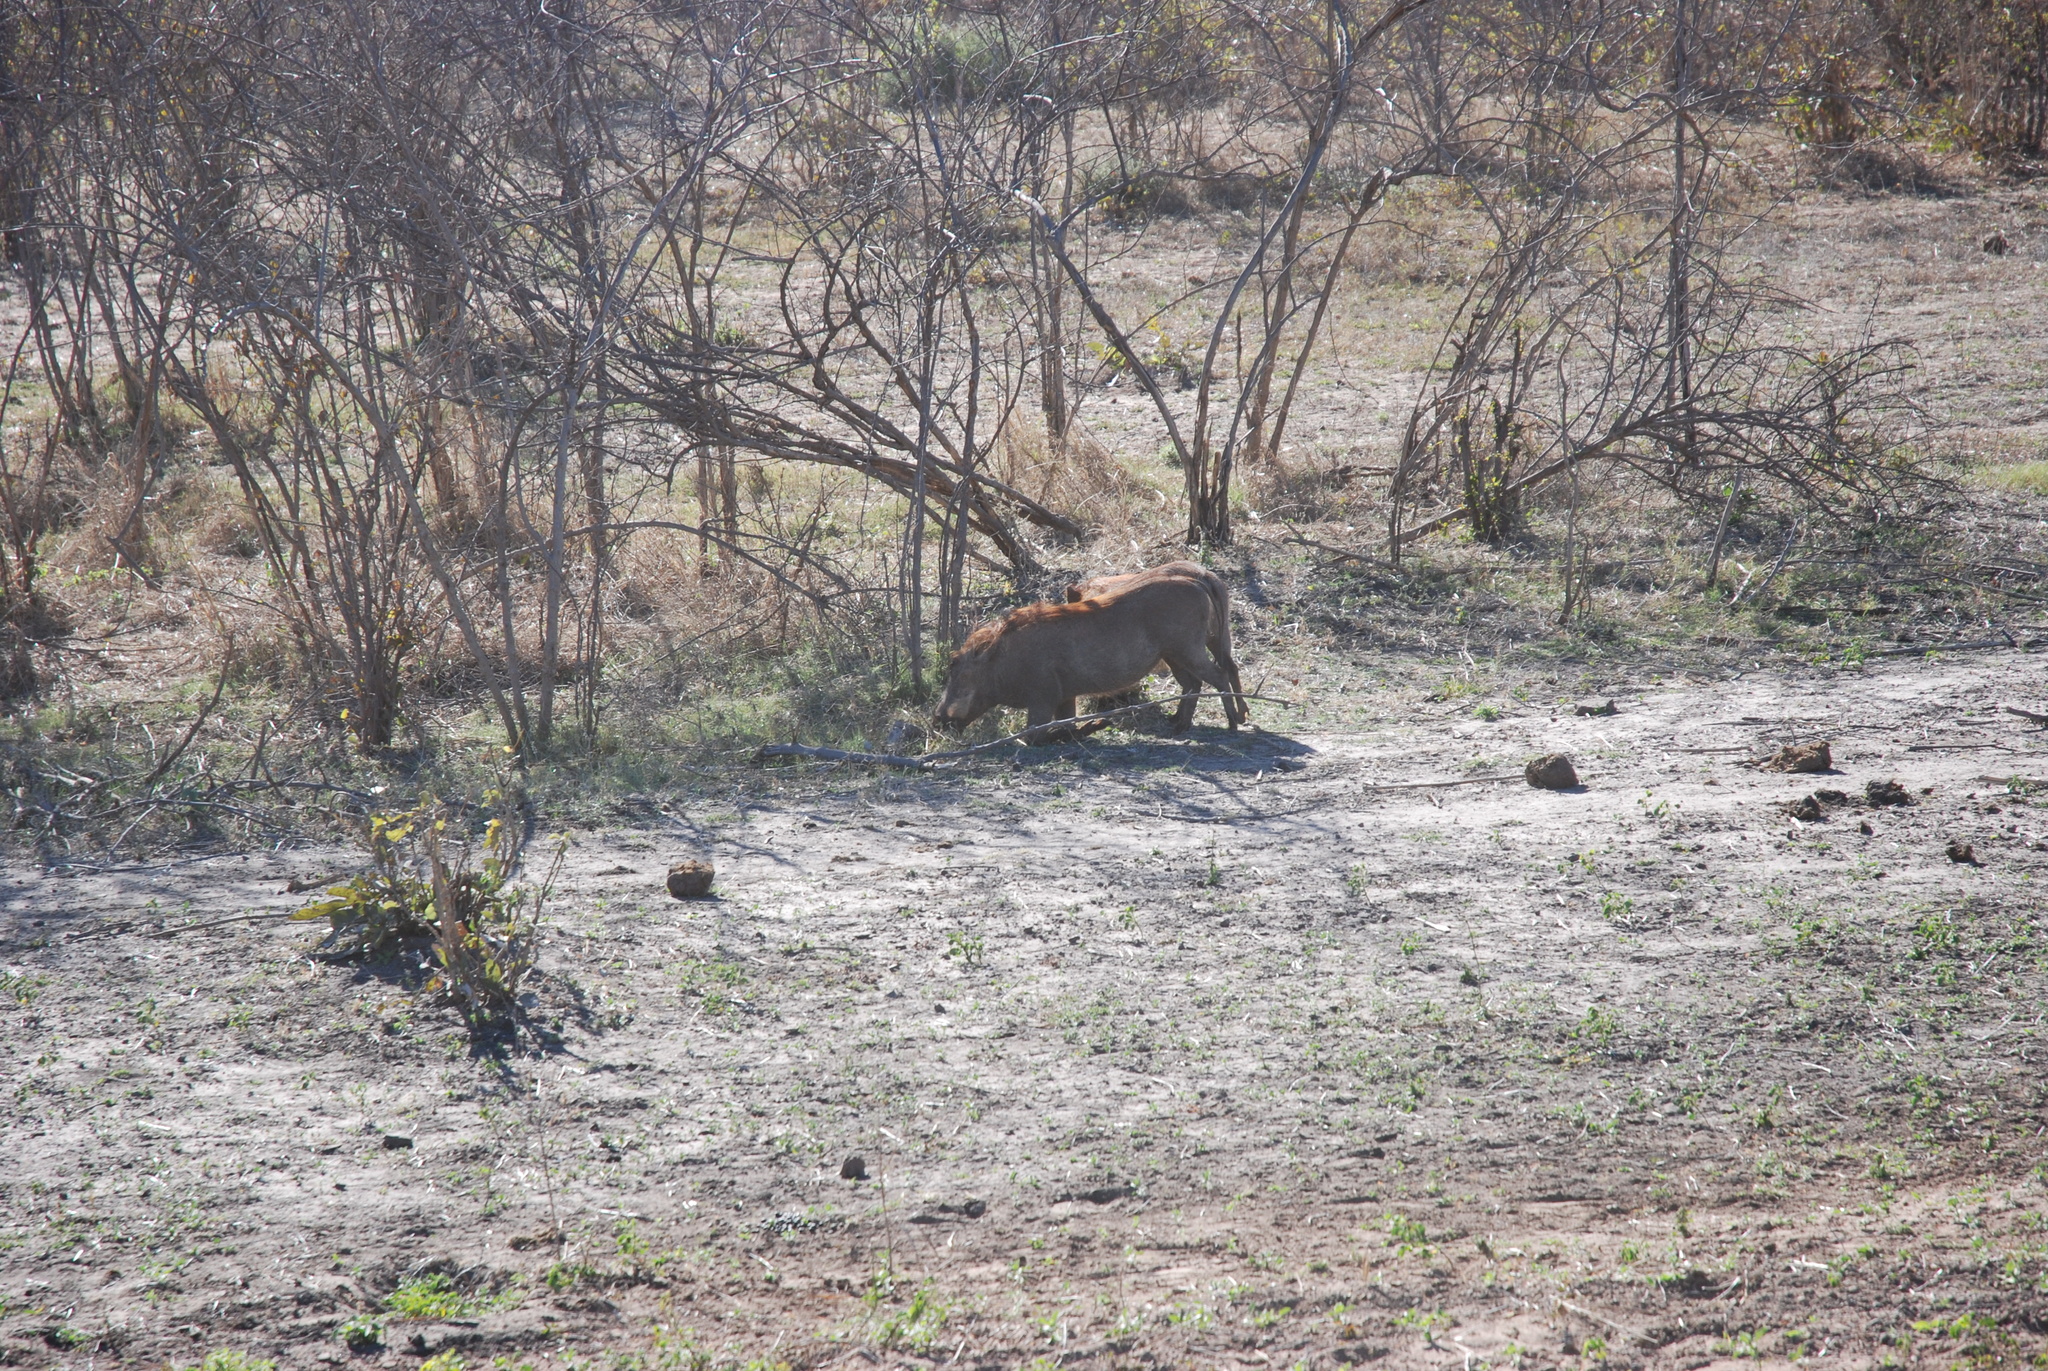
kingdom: Animalia
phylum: Chordata
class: Mammalia
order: Artiodactyla
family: Suidae
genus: Phacochoerus
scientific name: Phacochoerus africanus
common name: Common warthog
